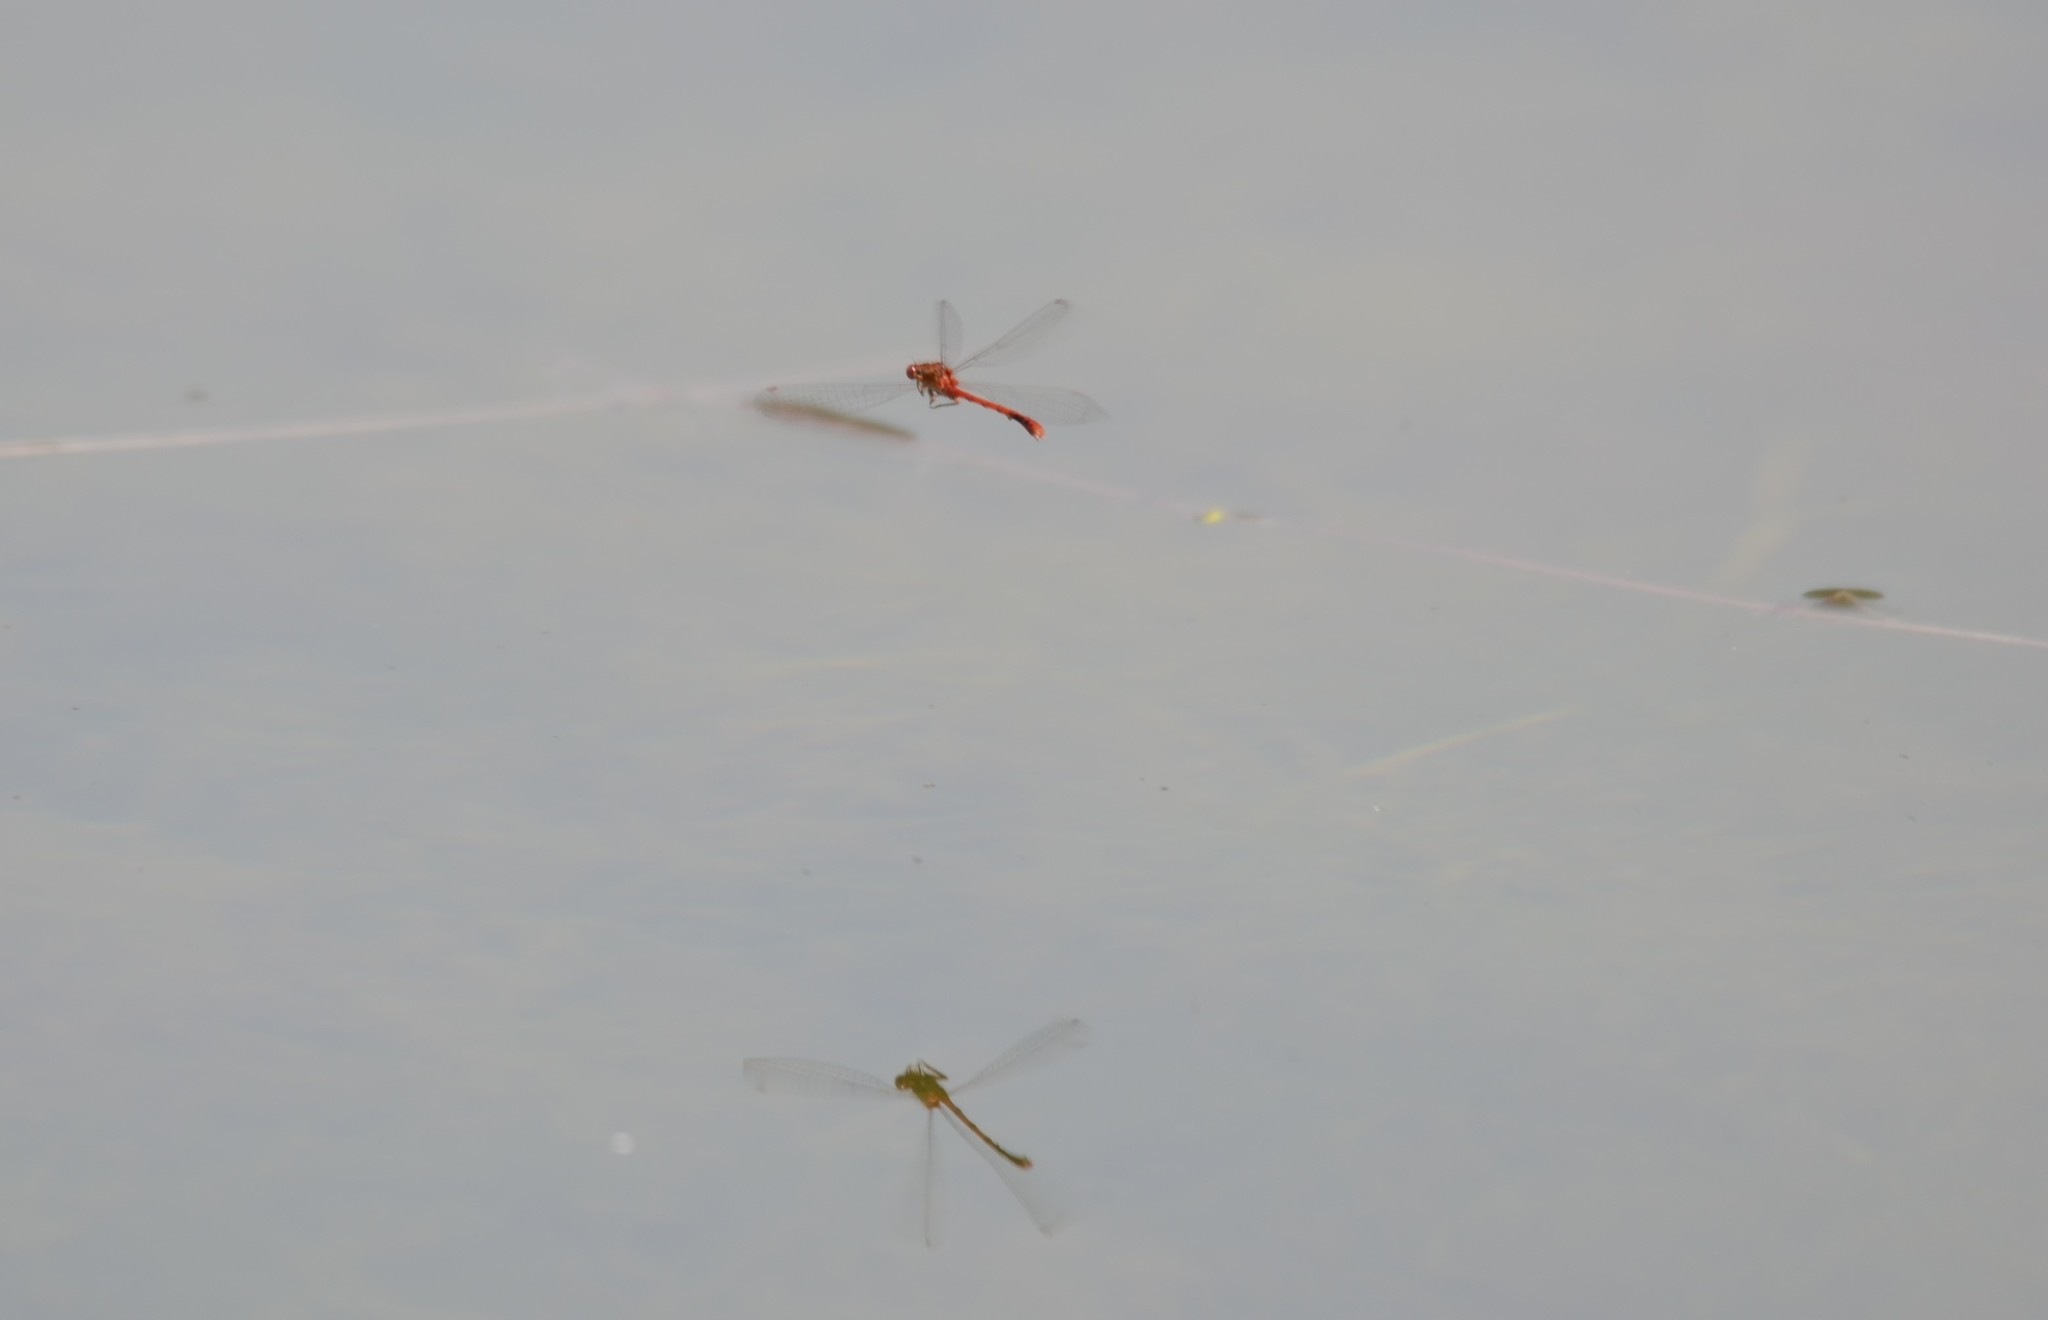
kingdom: Animalia
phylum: Arthropoda
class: Insecta
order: Odonata
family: Coenagrionidae
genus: Xanthocnemis
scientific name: Xanthocnemis zealandica
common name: Common redcoat damselfly
